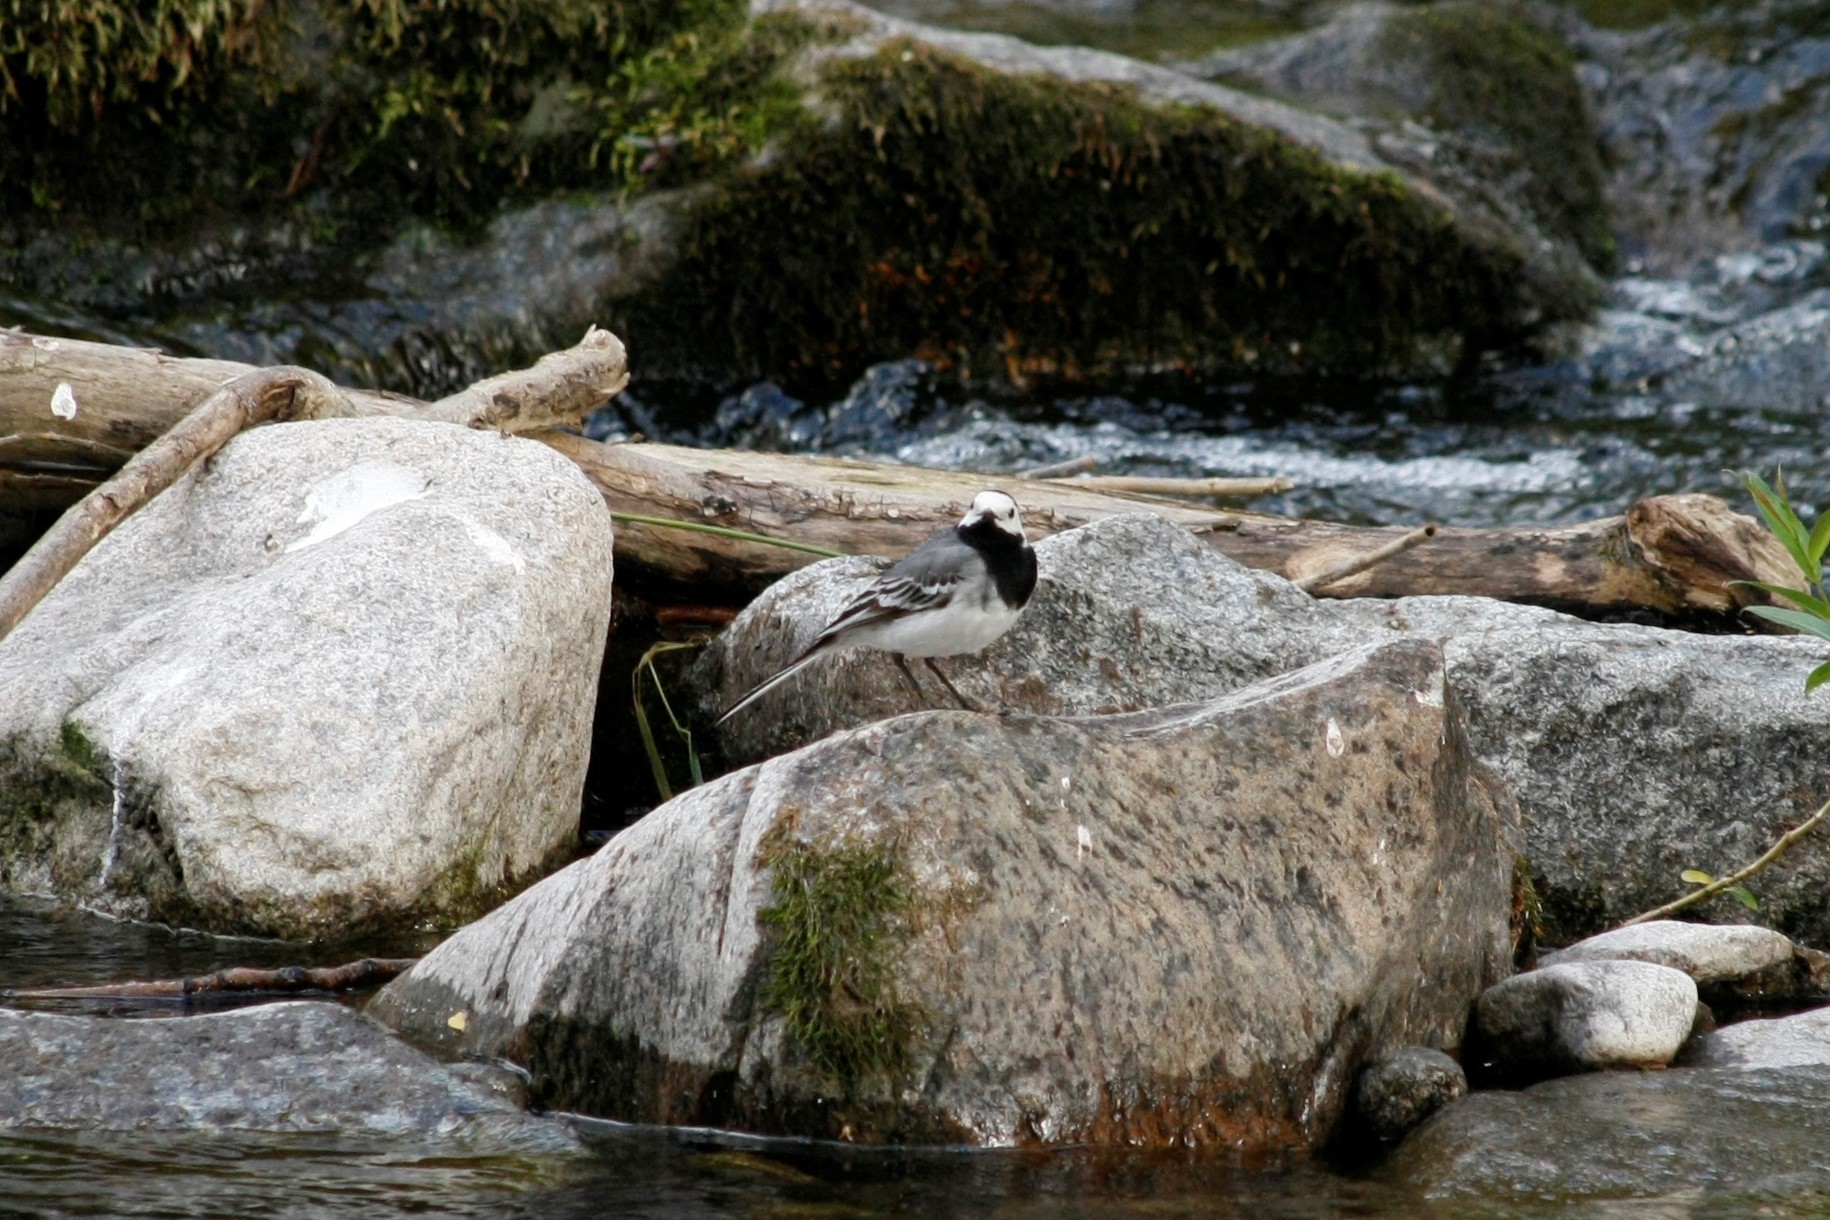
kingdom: Animalia
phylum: Chordata
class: Aves
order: Passeriformes
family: Motacillidae
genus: Motacilla
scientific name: Motacilla alba
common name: White wagtail
